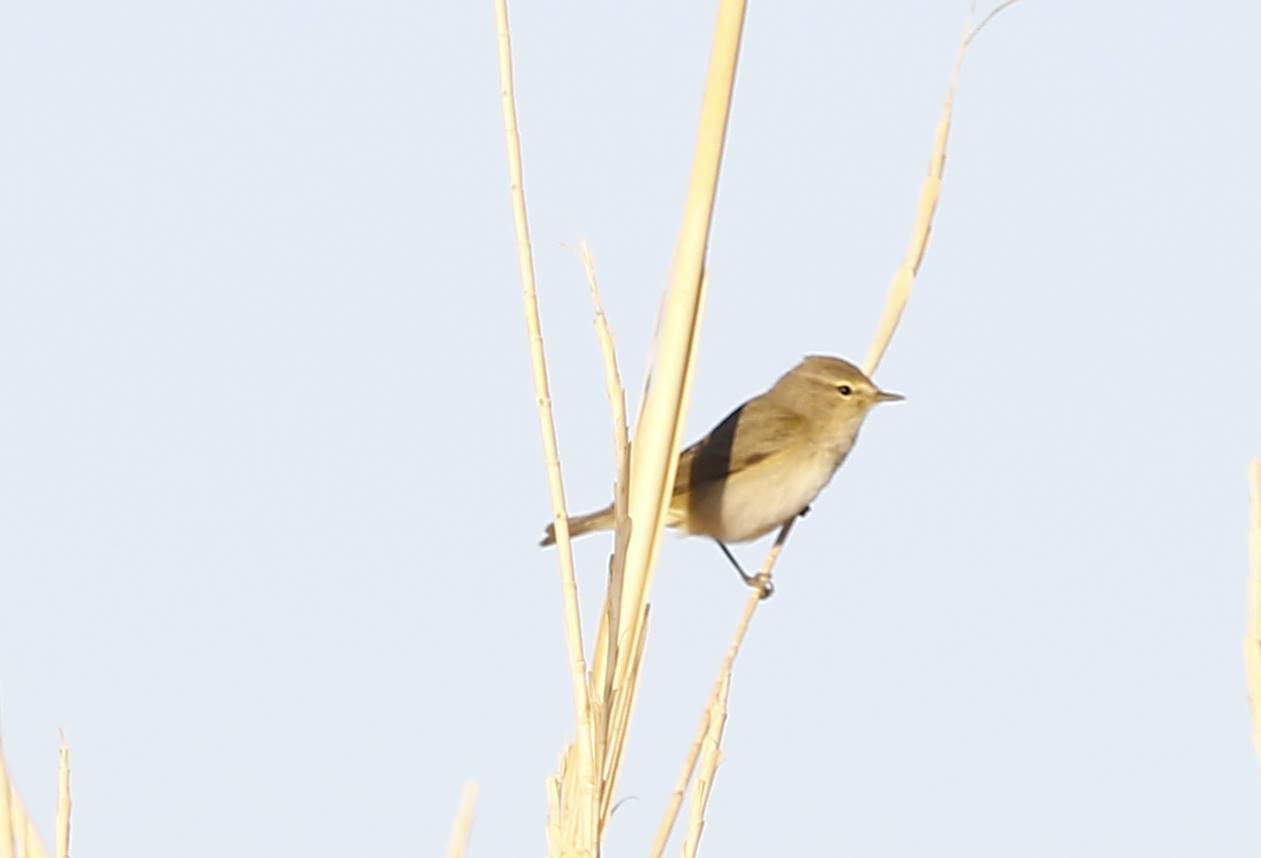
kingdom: Animalia
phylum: Chordata
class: Aves
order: Passeriformes
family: Phylloscopidae
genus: Phylloscopus
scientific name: Phylloscopus collybita
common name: Common chiffchaff
